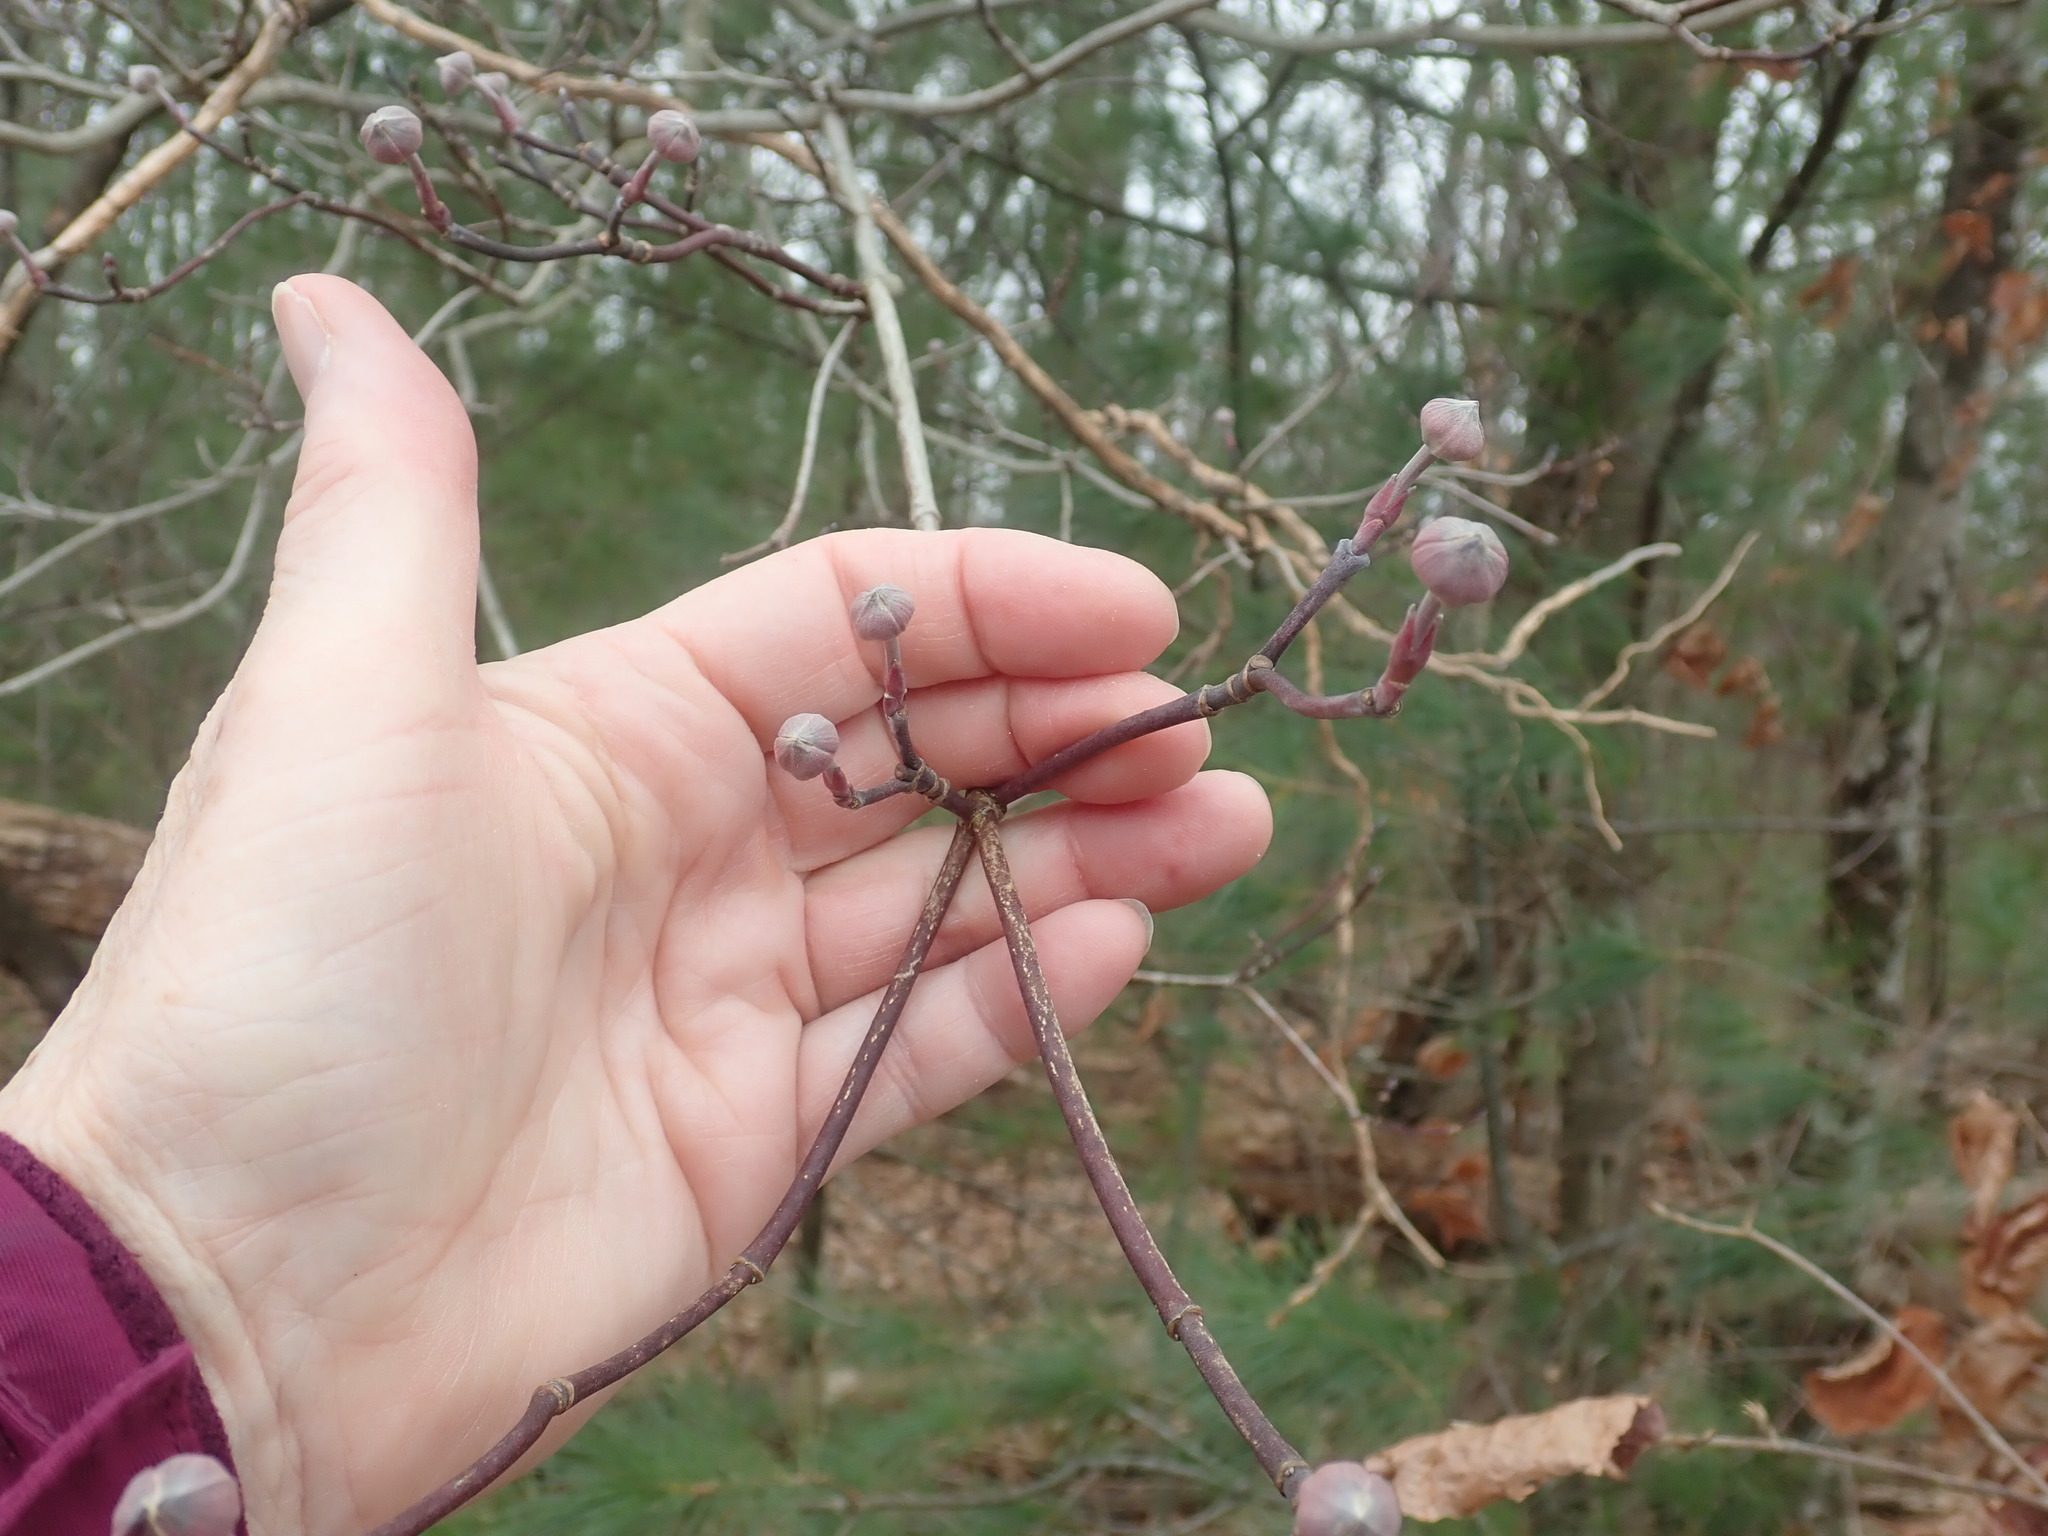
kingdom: Plantae
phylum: Tracheophyta
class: Magnoliopsida
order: Cornales
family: Cornaceae
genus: Cornus
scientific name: Cornus florida
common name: Flowering dogwood
